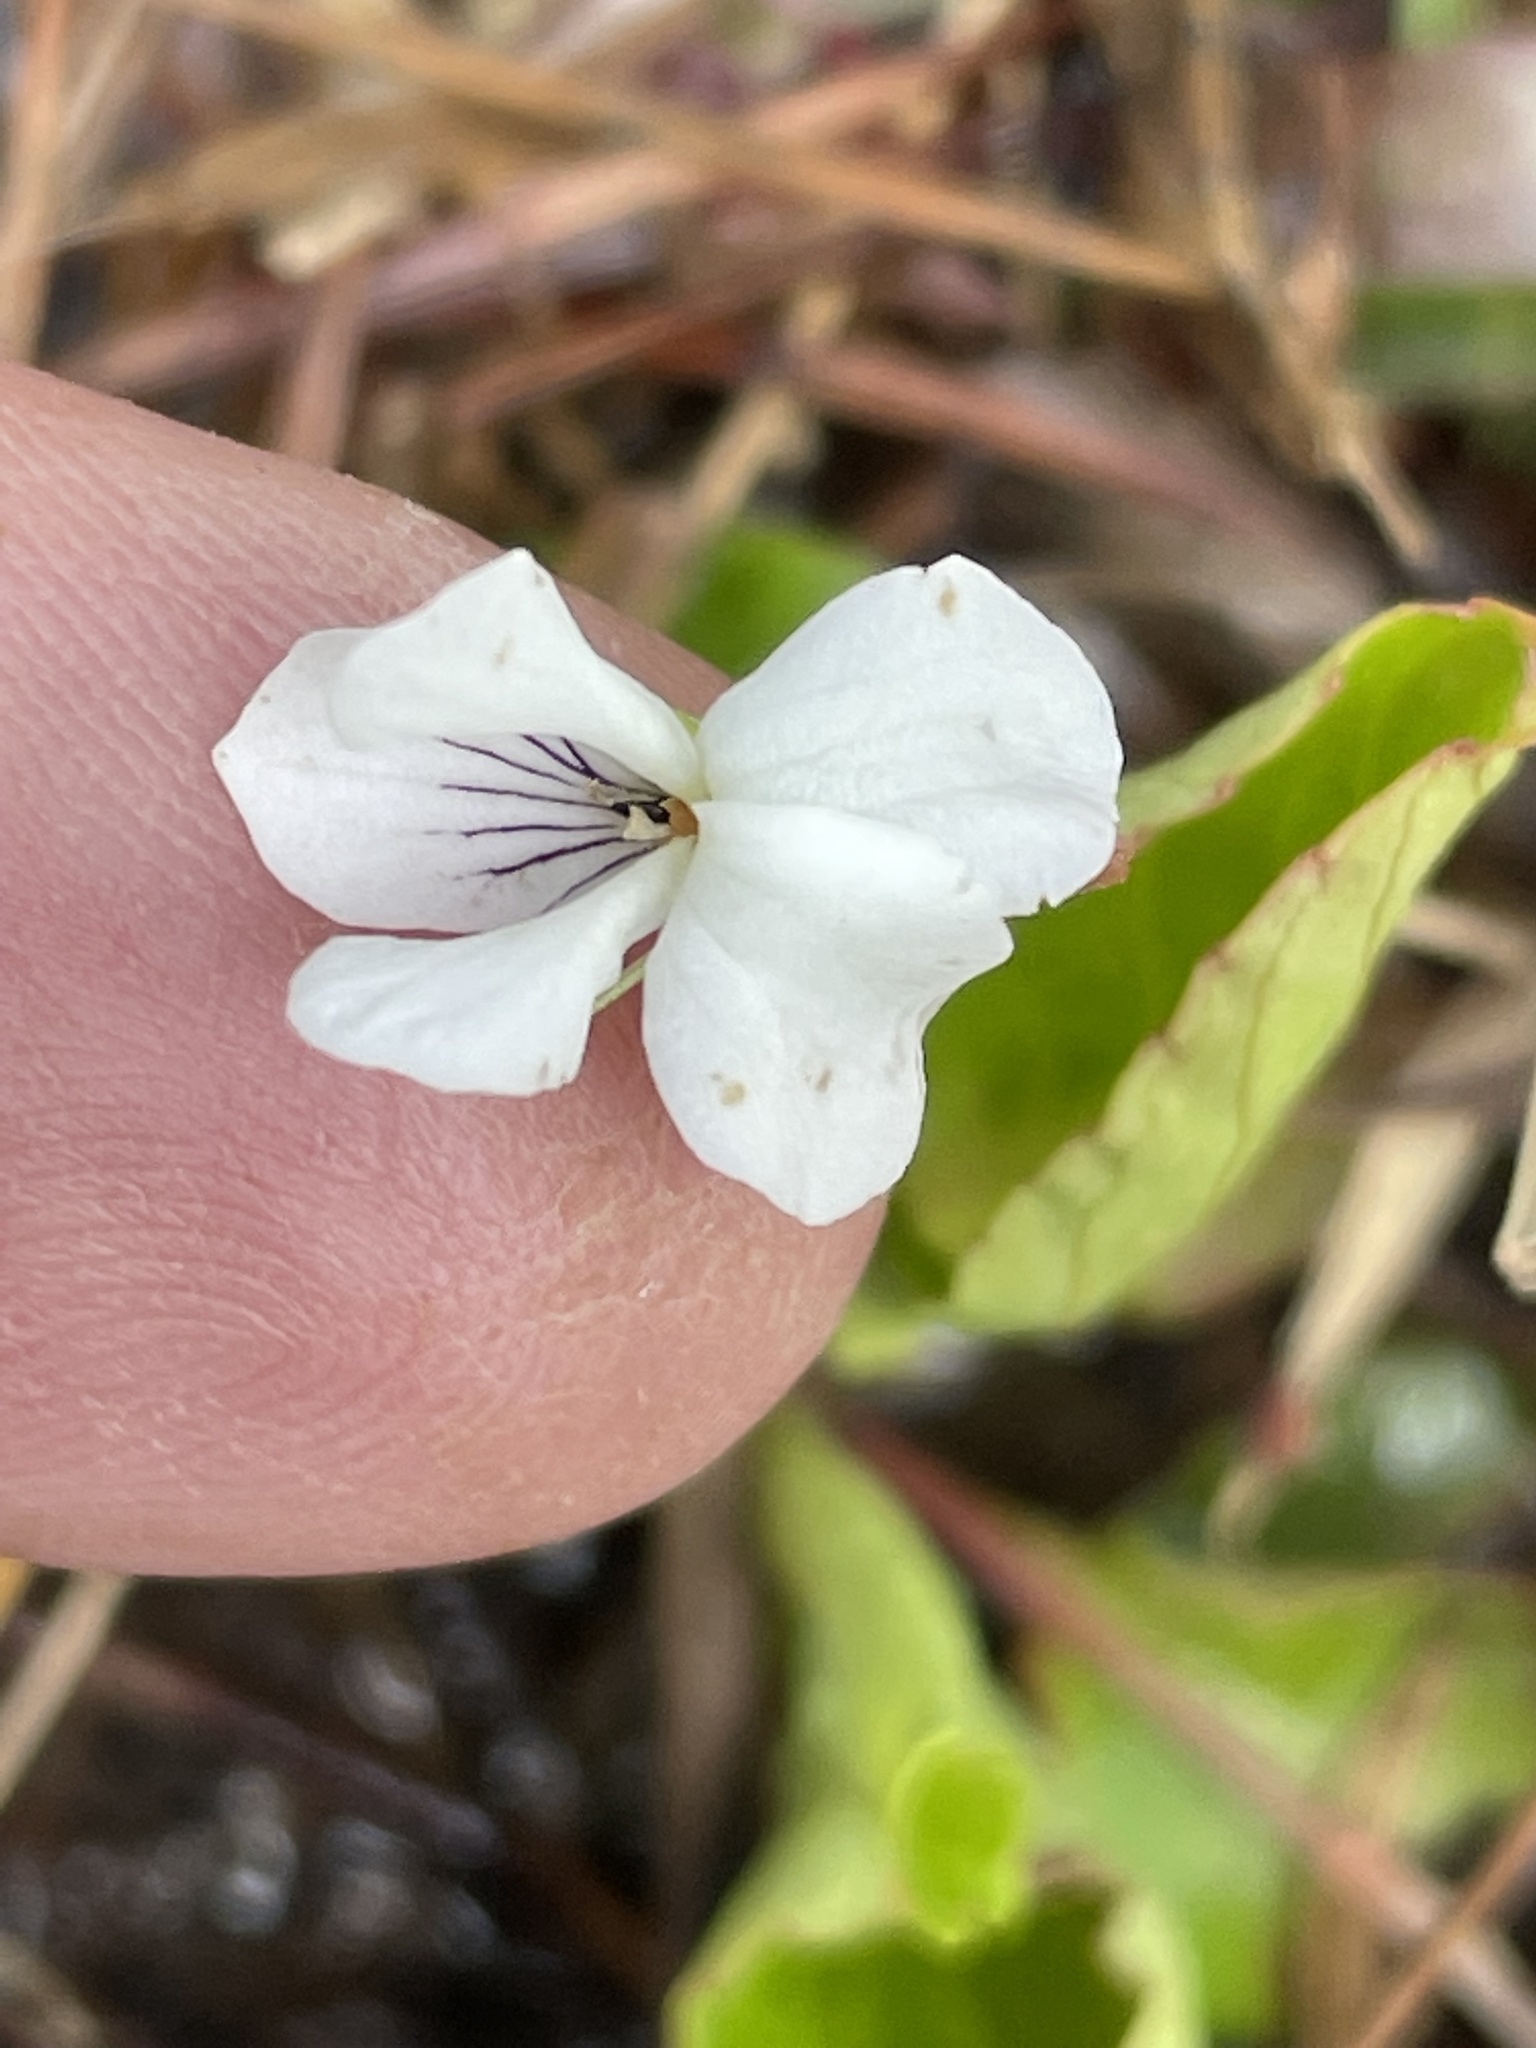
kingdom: Plantae
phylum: Tracheophyta
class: Magnoliopsida
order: Malpighiales
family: Violaceae
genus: Viola
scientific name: Viola primulifolia
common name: Primrose-leaf violet
